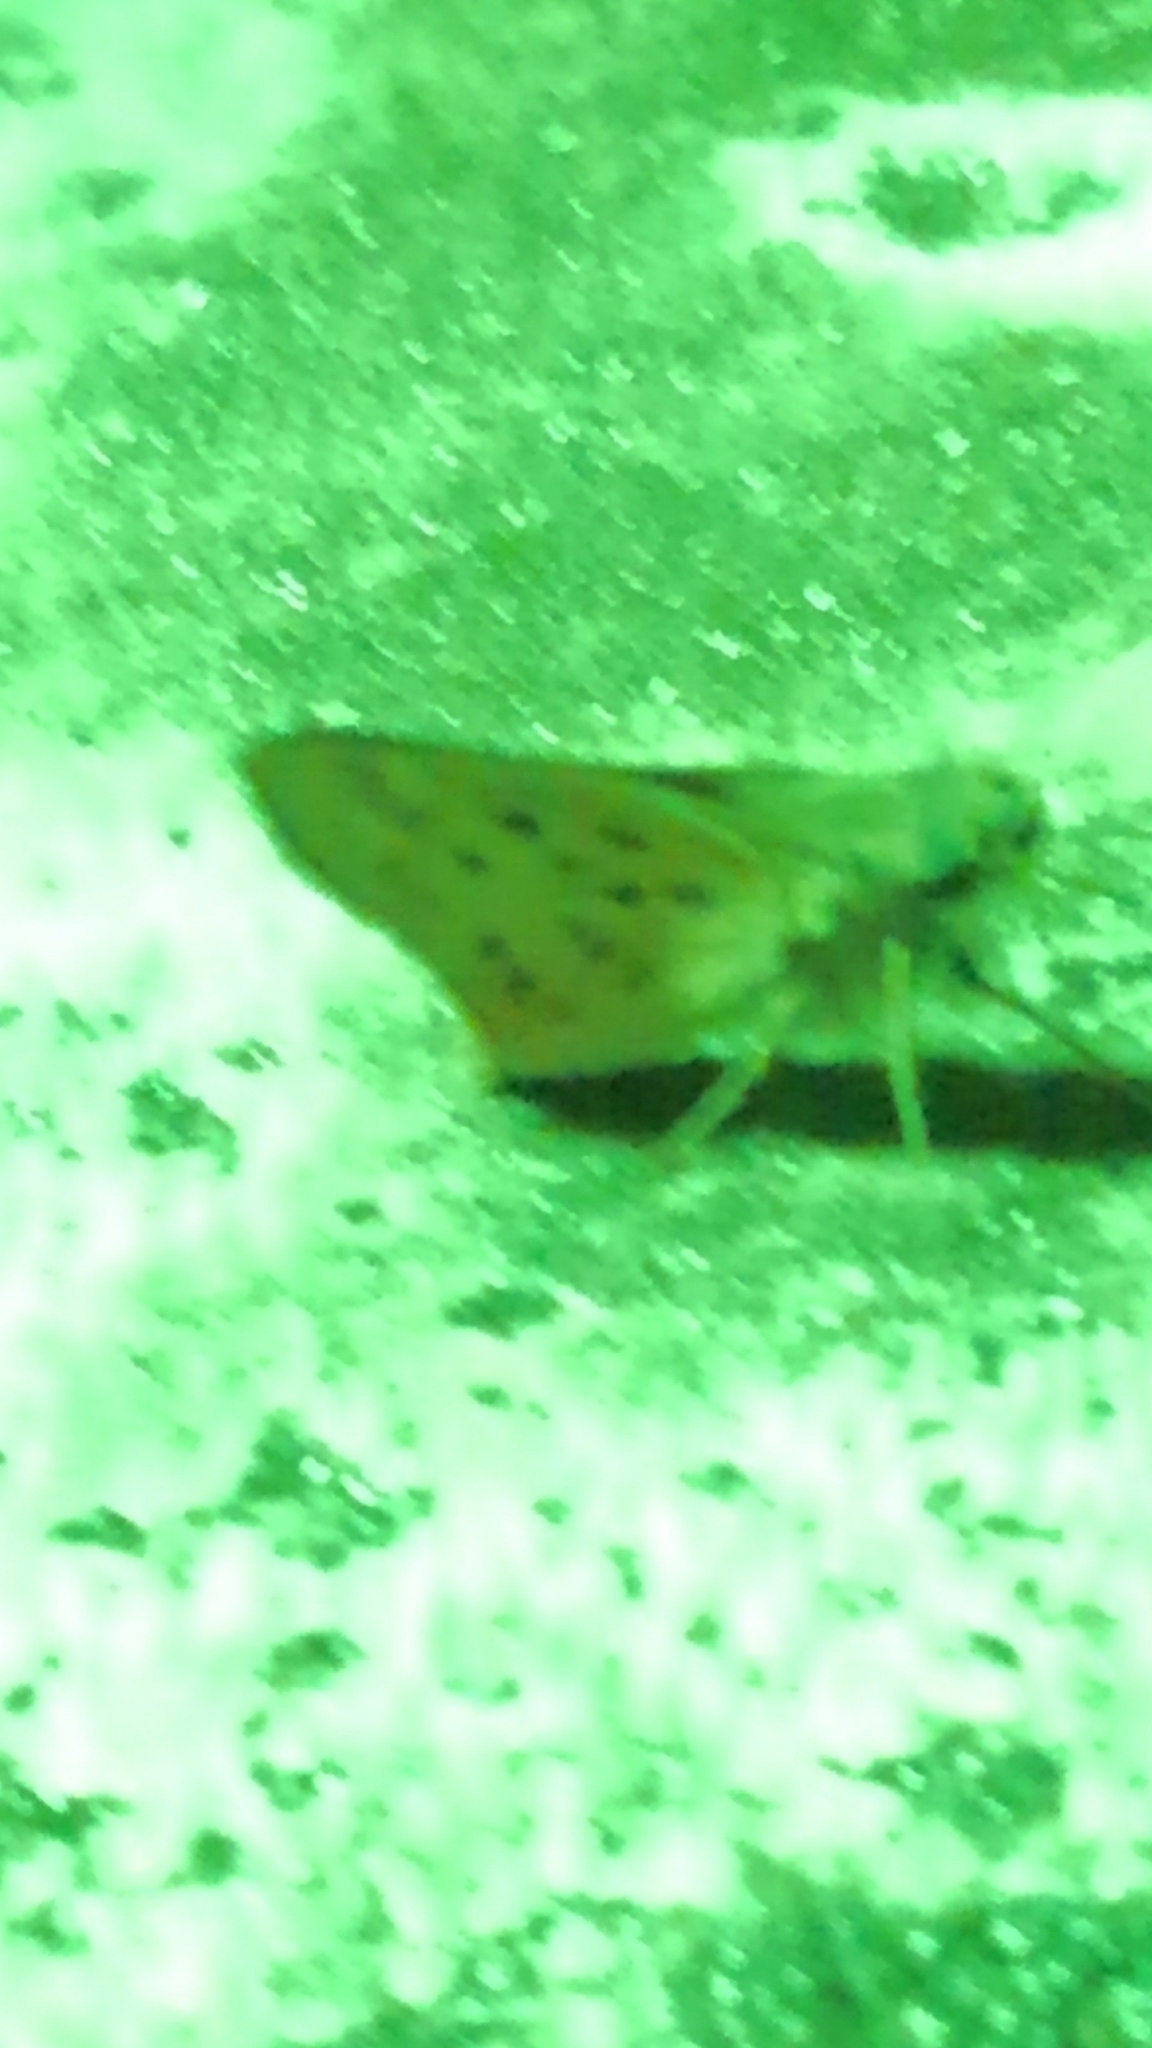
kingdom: Animalia
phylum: Arthropoda
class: Insecta
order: Lepidoptera
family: Hesperiidae
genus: Hylephila
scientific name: Hylephila phyleus
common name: Fiery skipper
